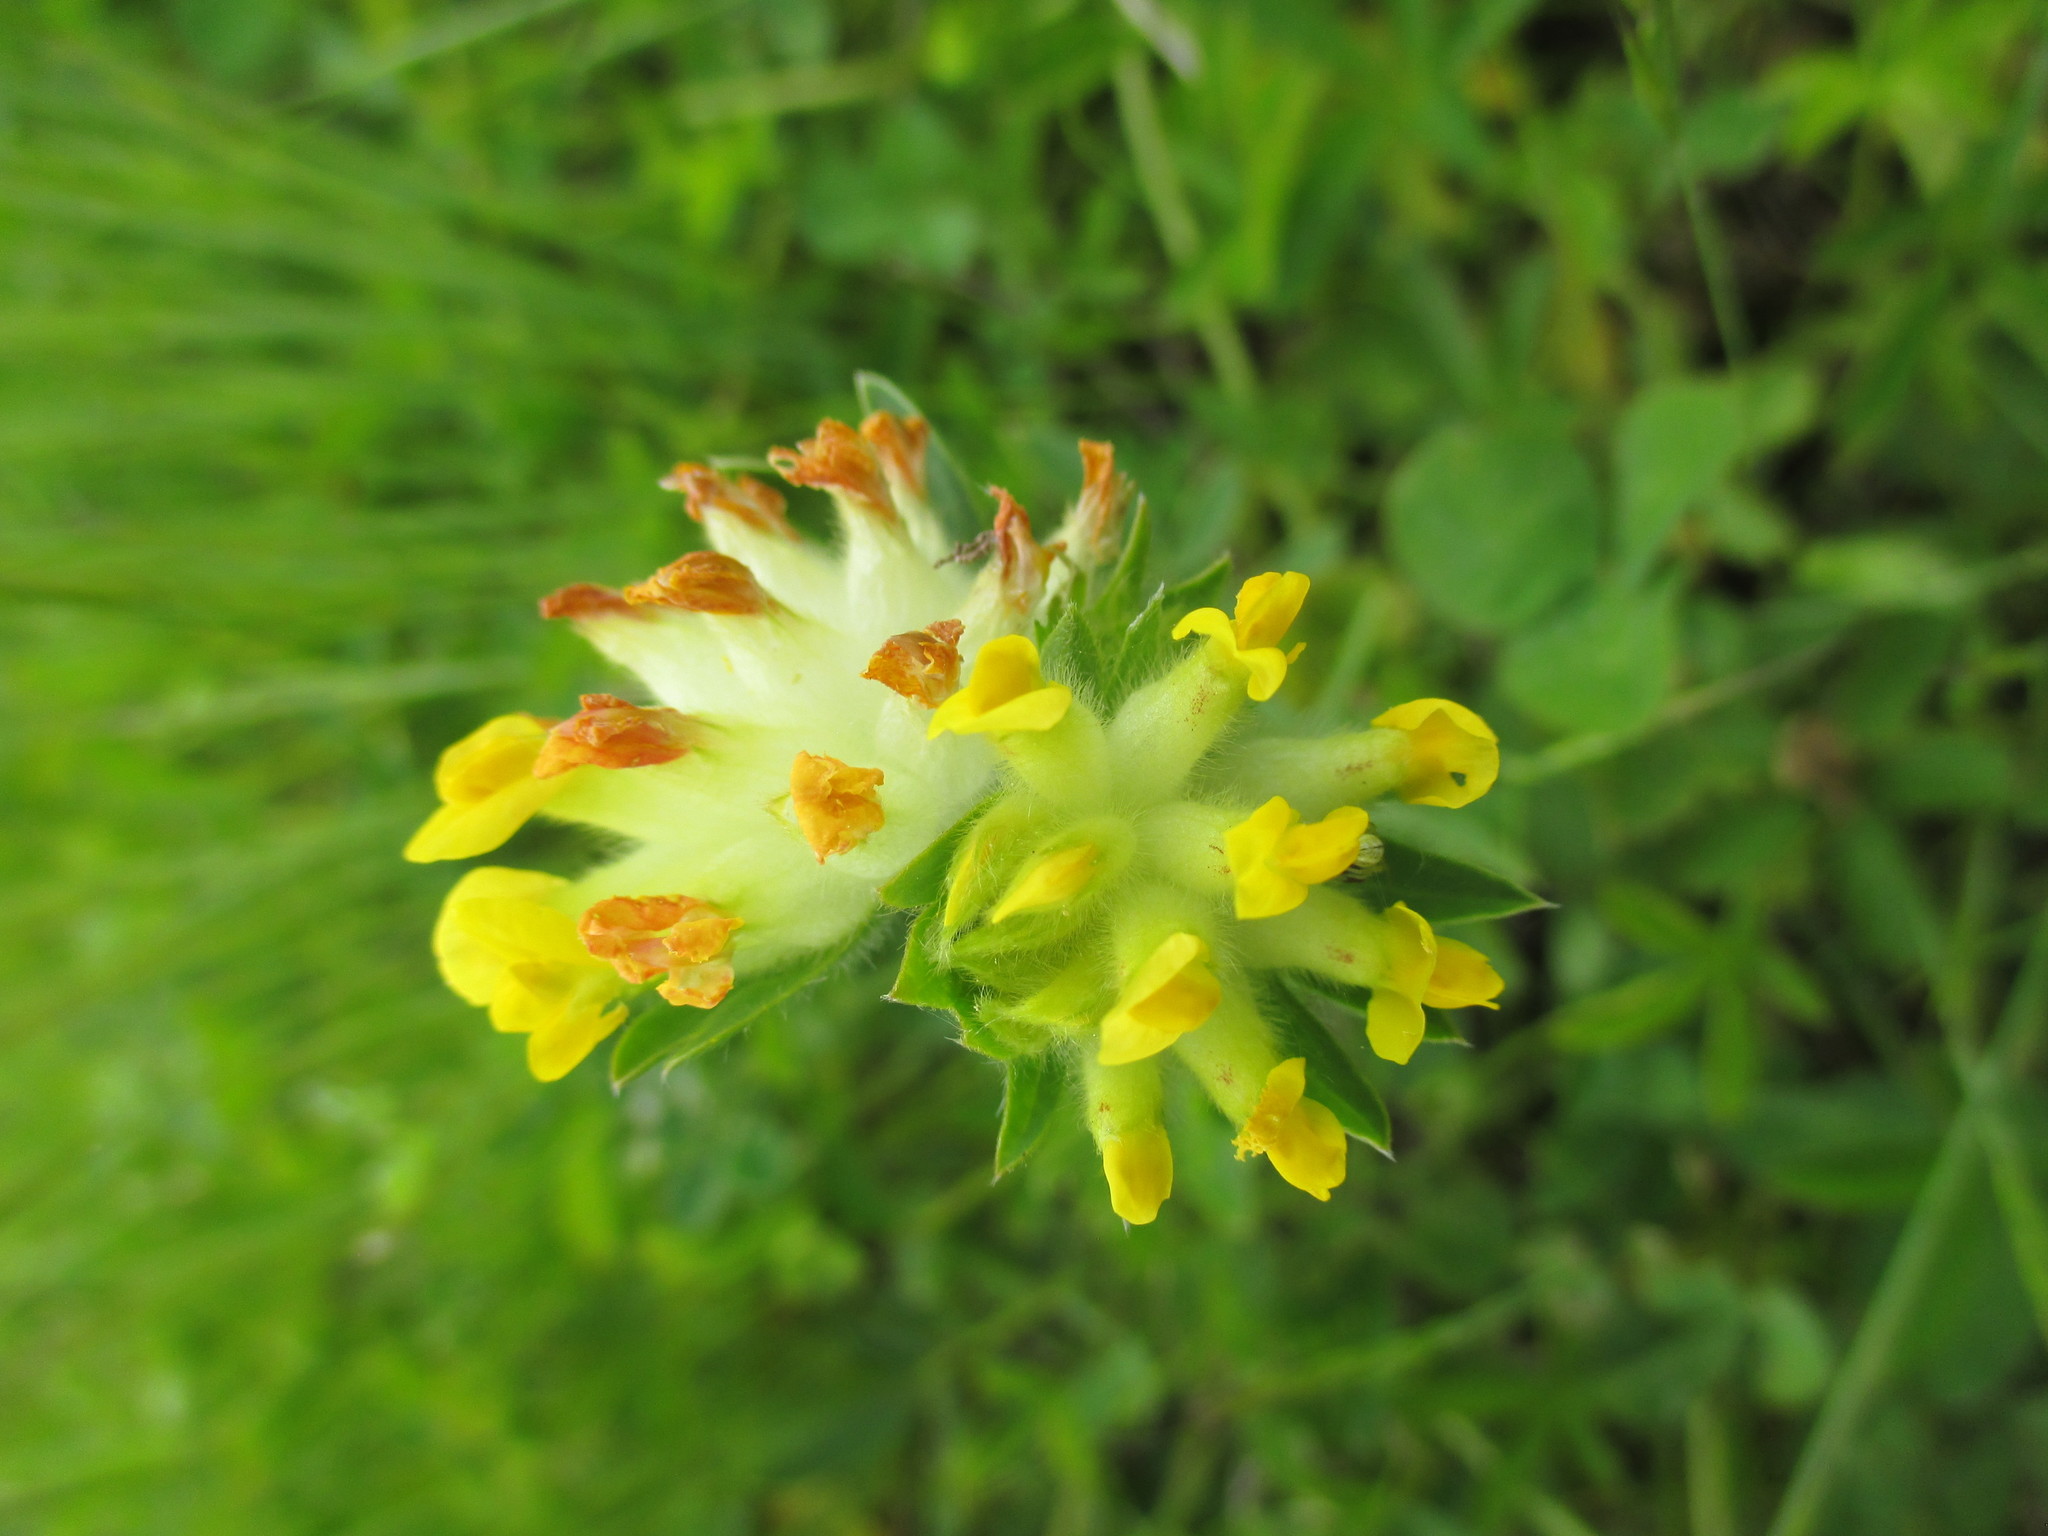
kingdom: Plantae
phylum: Tracheophyta
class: Magnoliopsida
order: Fabales
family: Fabaceae
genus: Anthyllis
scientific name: Anthyllis vulneraria
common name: Kidney vetch
